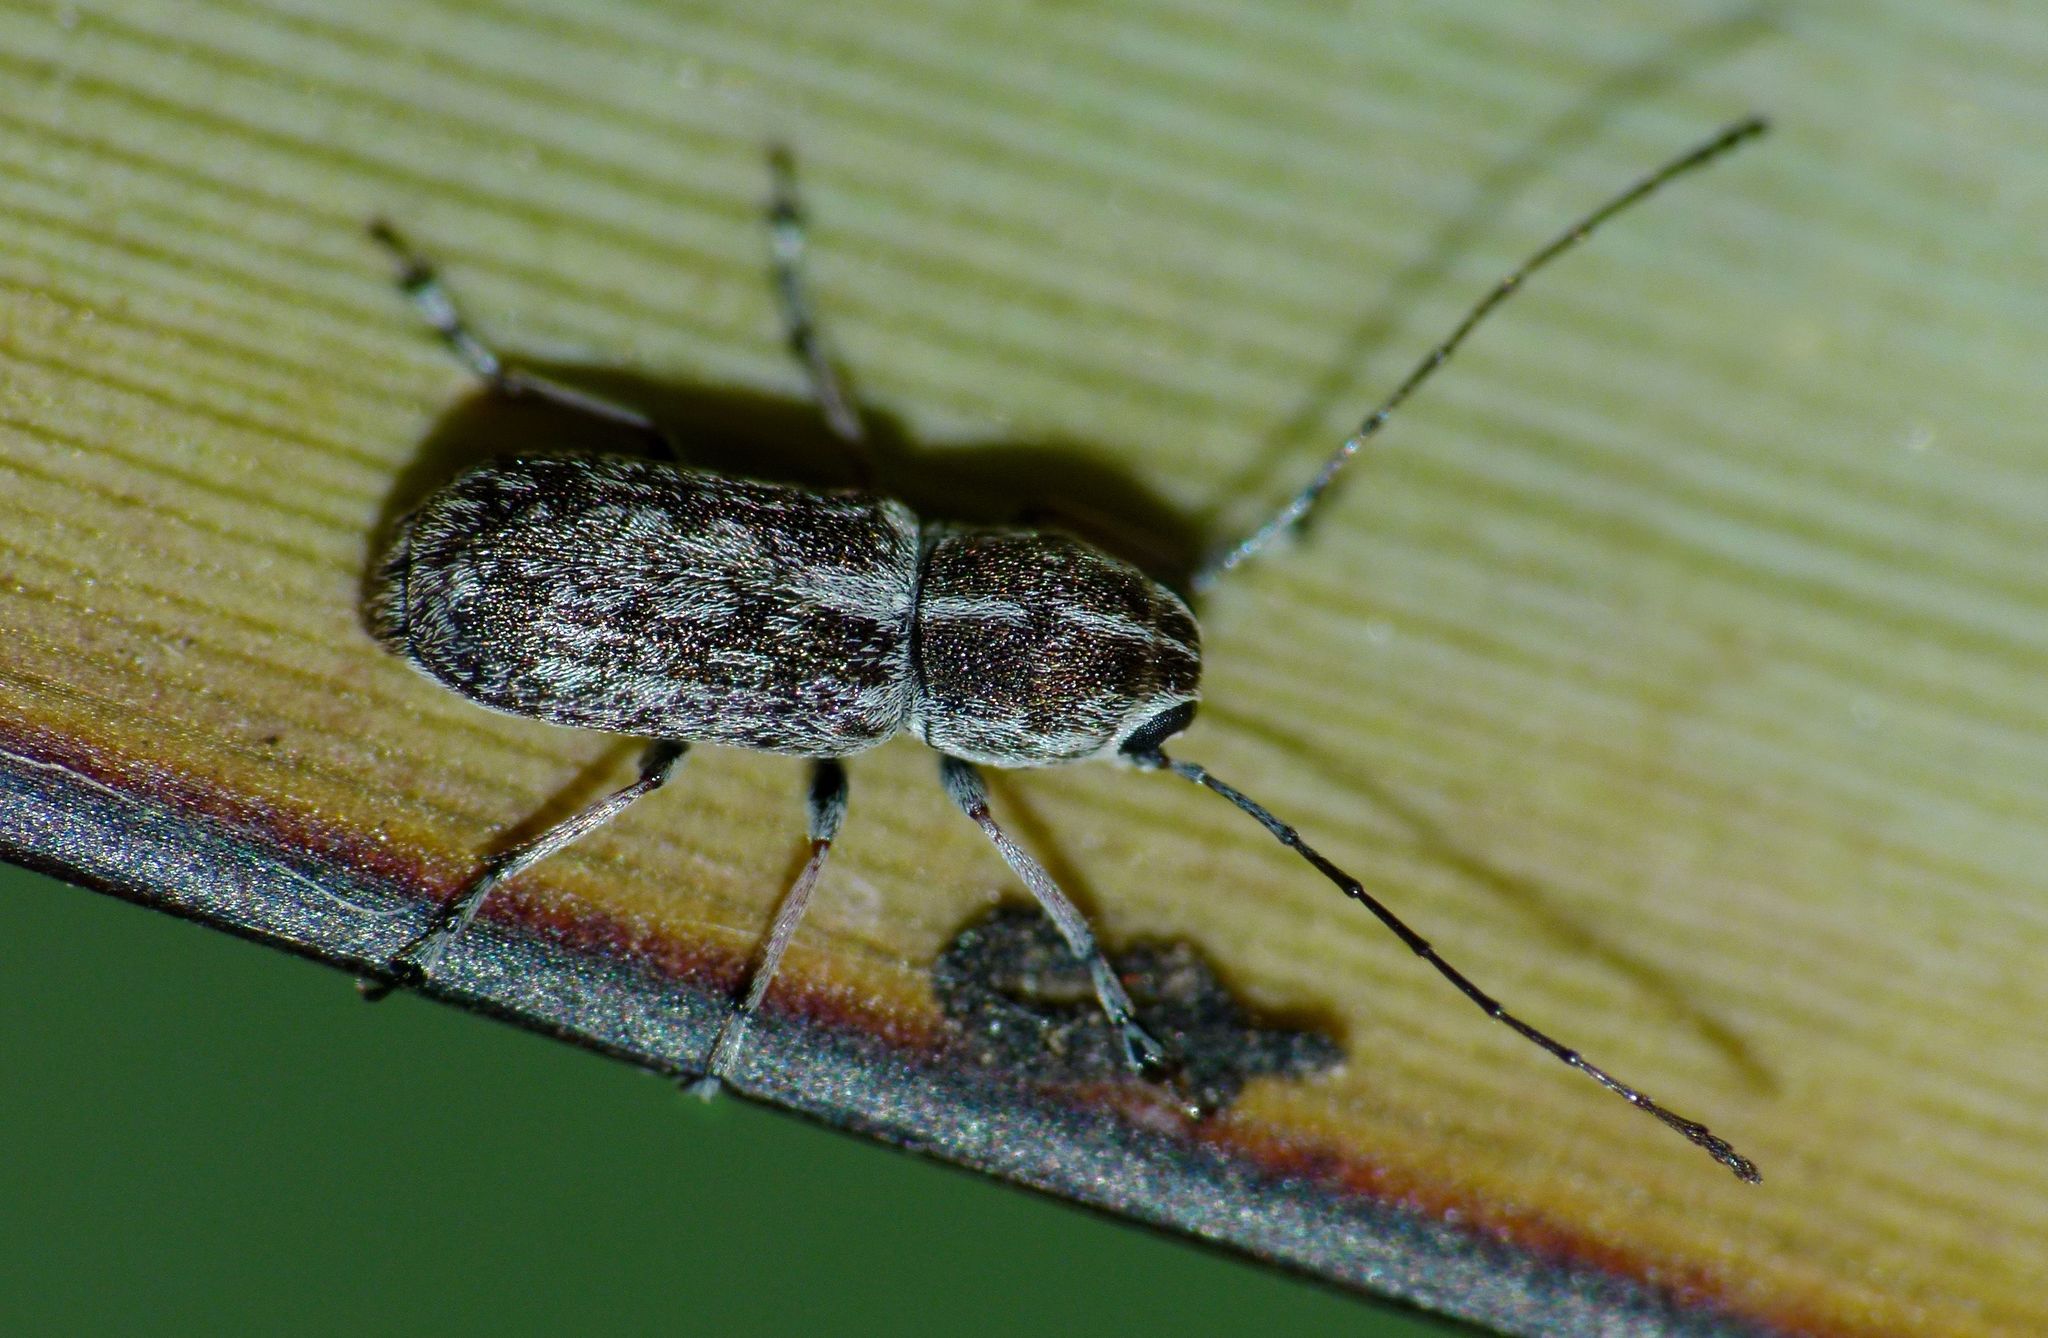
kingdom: Animalia
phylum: Arthropoda
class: Insecta
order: Coleoptera
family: Anthribidae
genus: Euciodes
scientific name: Euciodes suturalis
